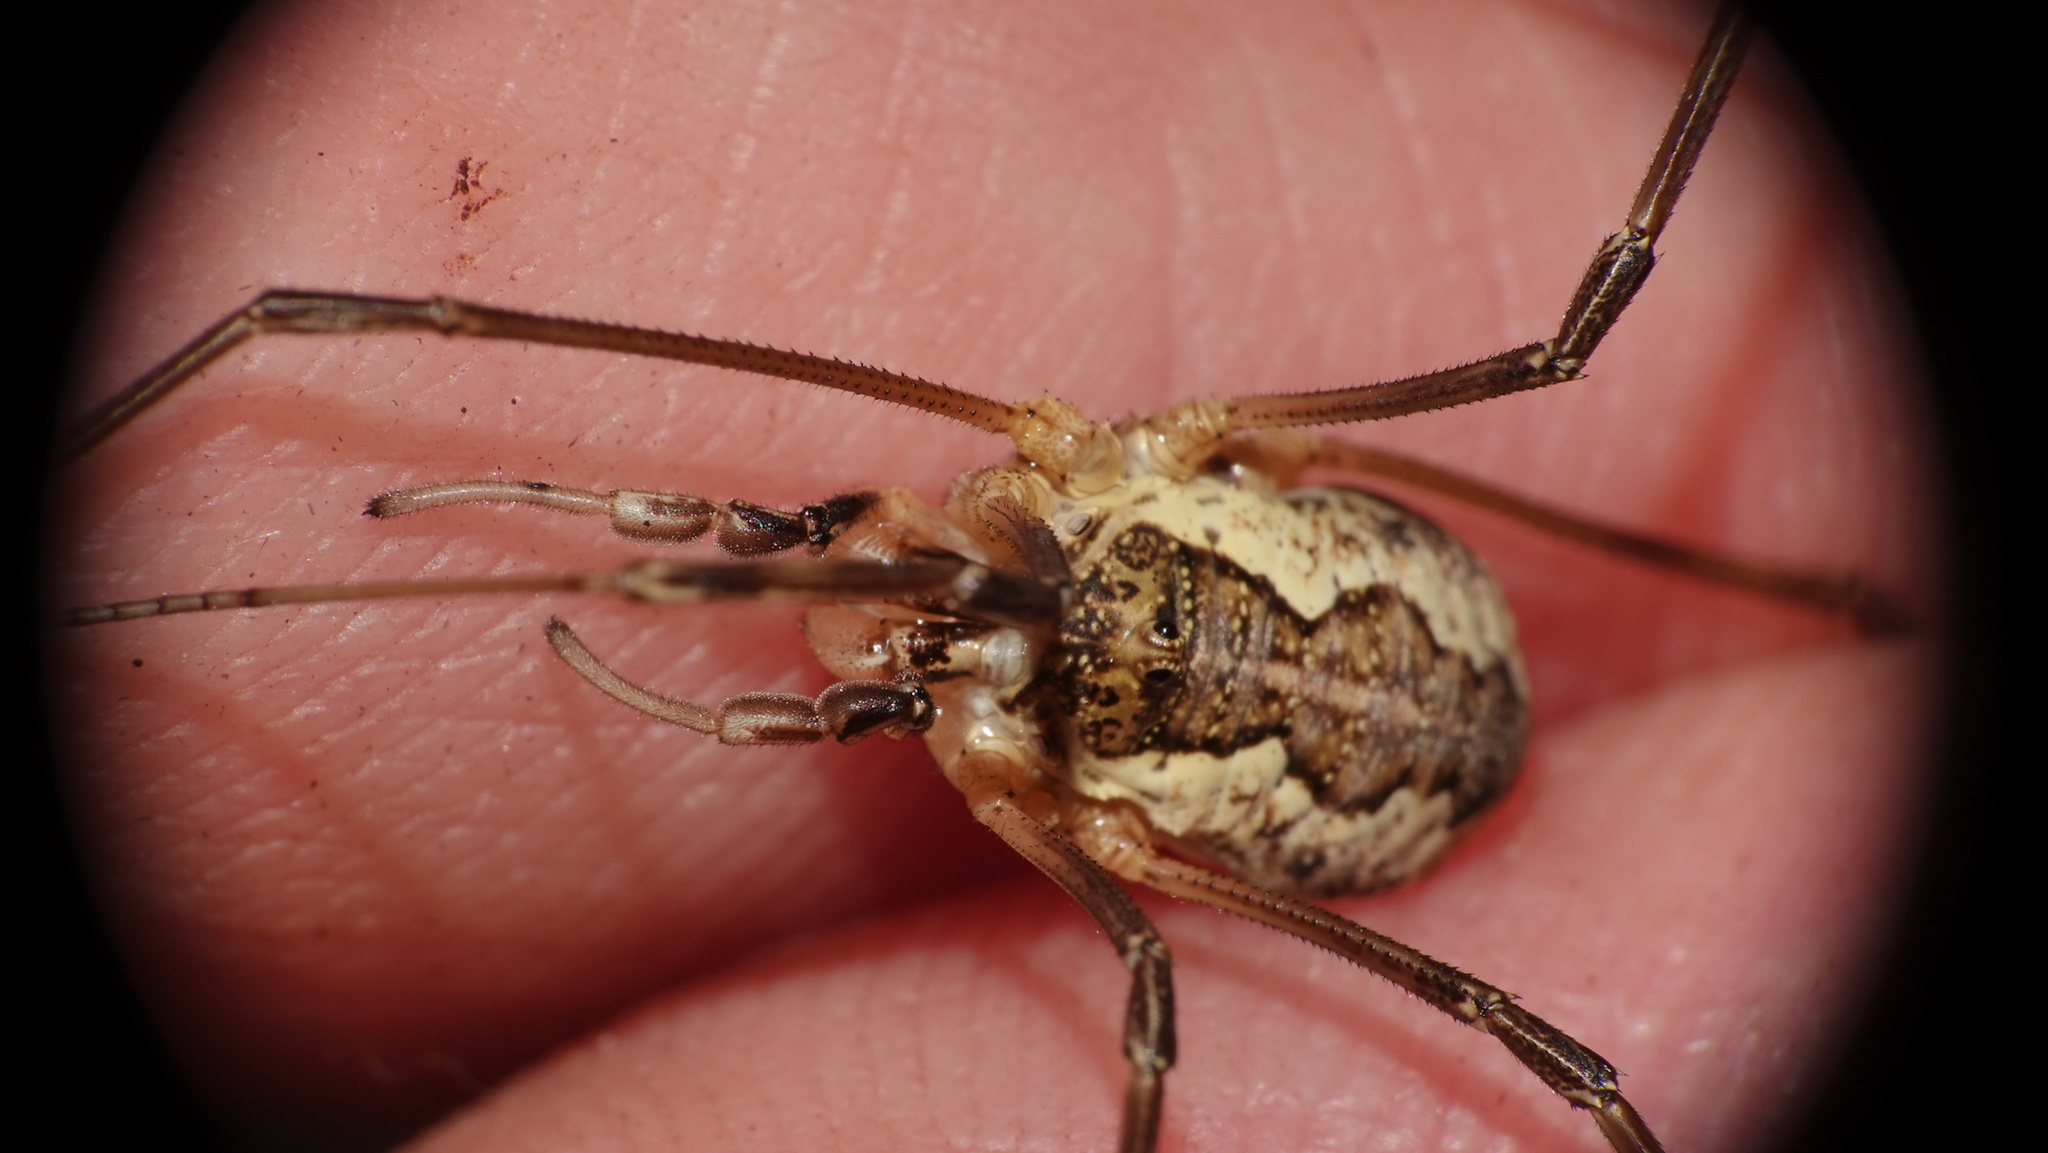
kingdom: Animalia
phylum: Arthropoda
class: Arachnida
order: Opiliones
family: Phalangiidae
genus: Mitopus
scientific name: Mitopus morio
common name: Saddleback harvestman
